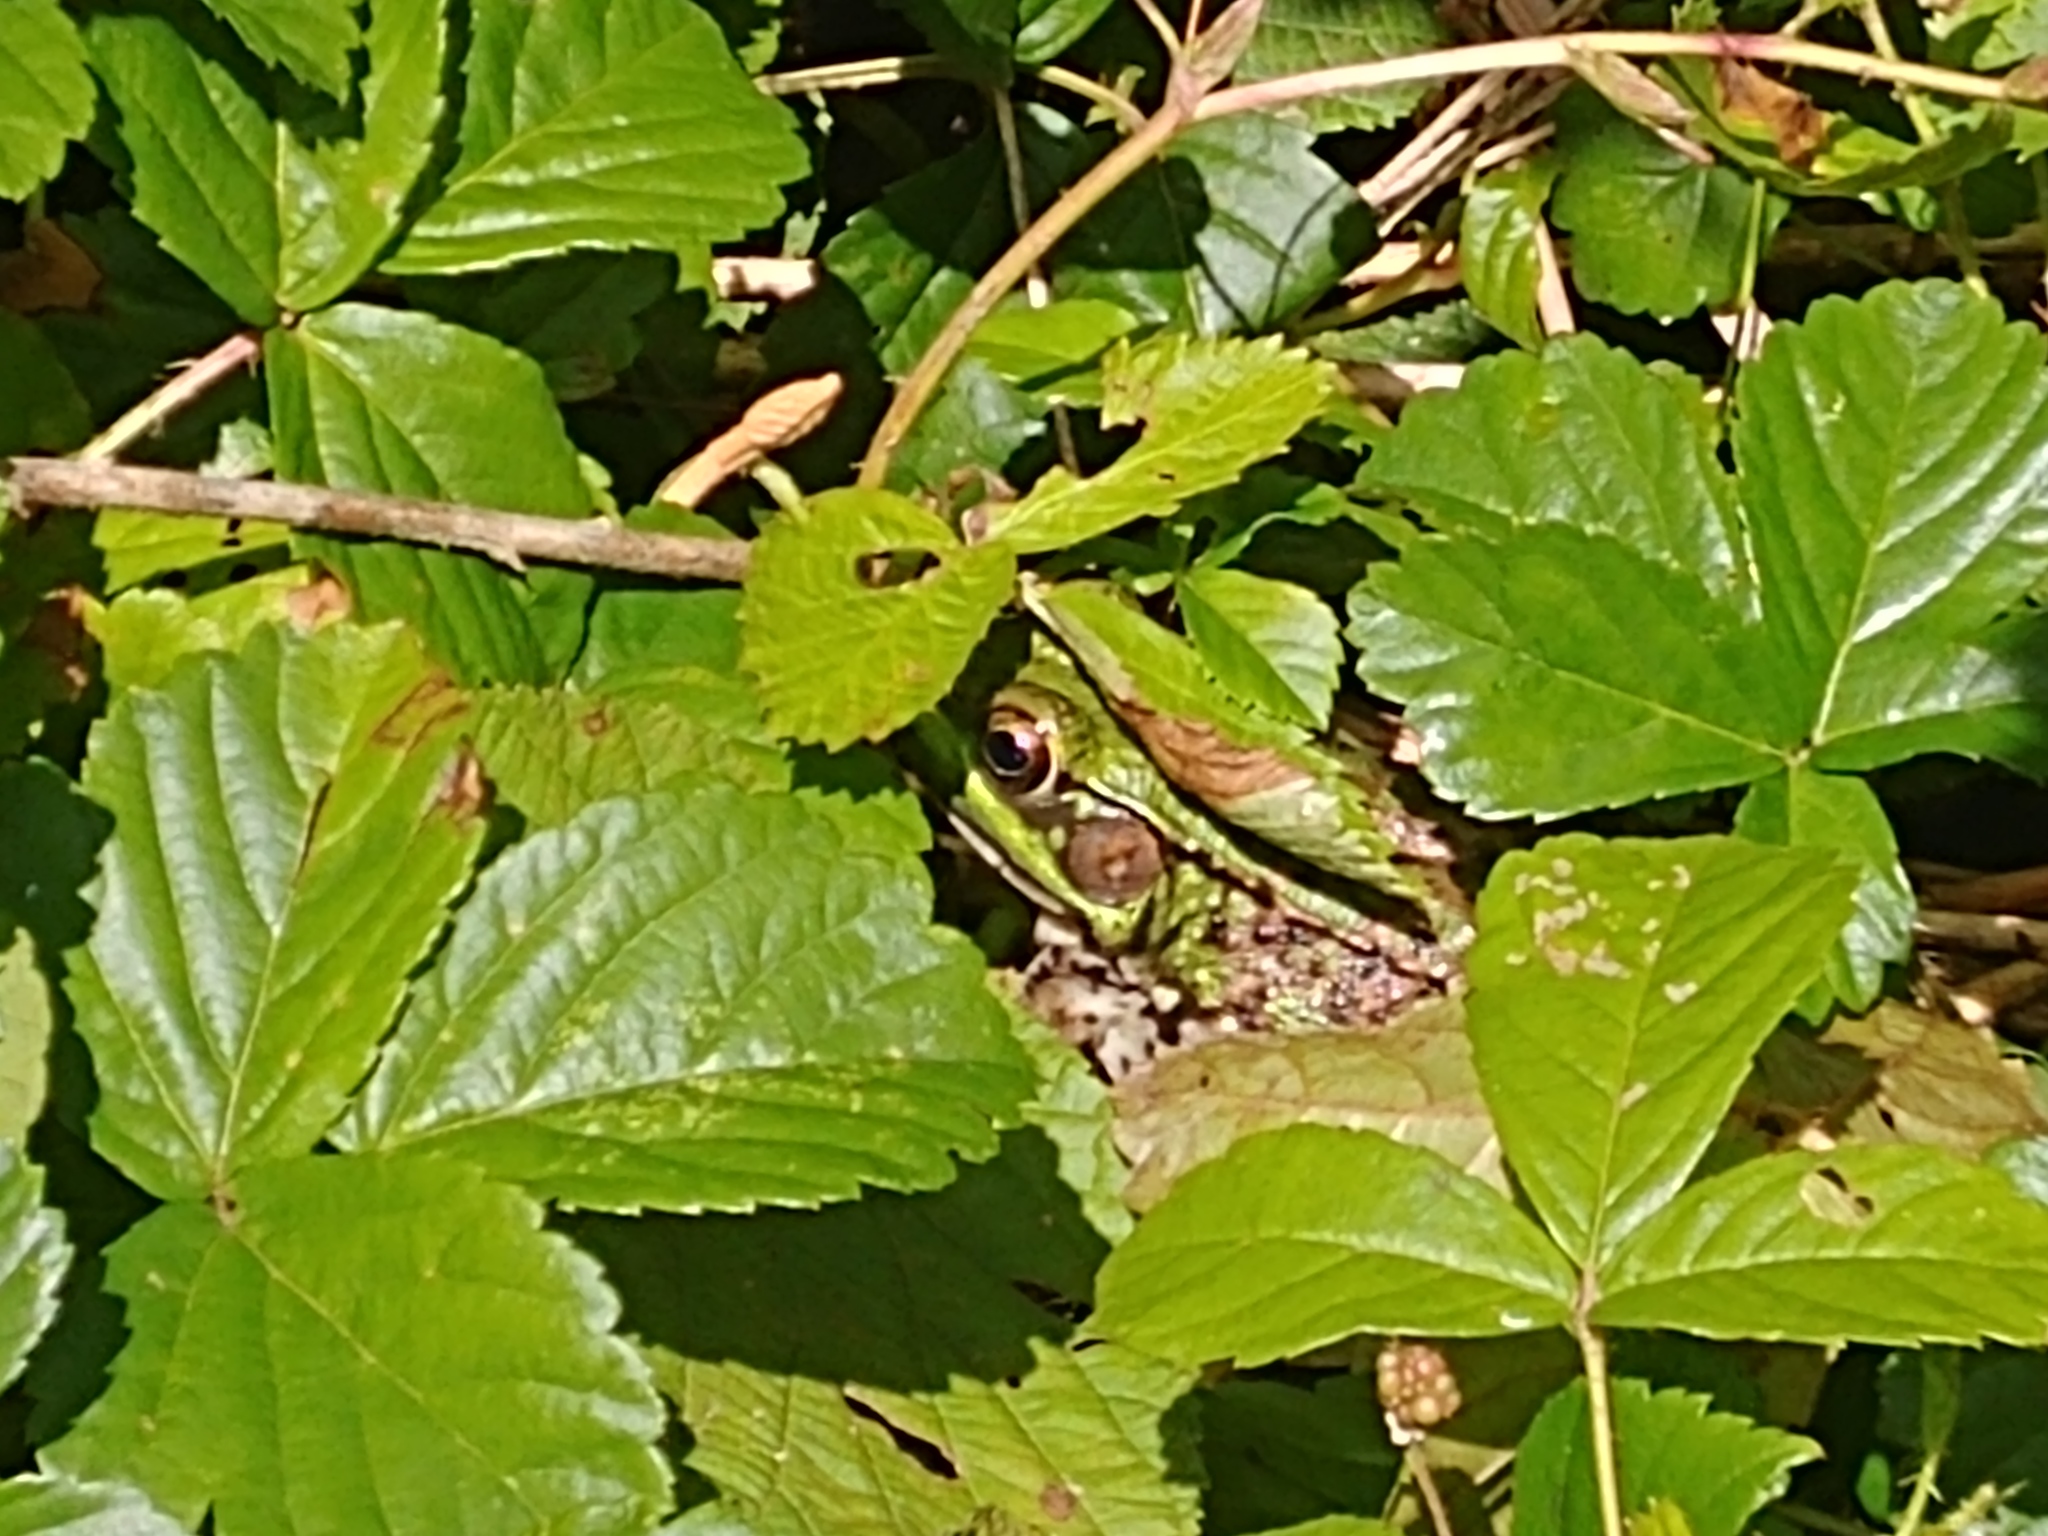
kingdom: Animalia
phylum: Chordata
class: Amphibia
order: Anura
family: Ranidae
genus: Lithobates
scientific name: Lithobates clamitans
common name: Green frog
